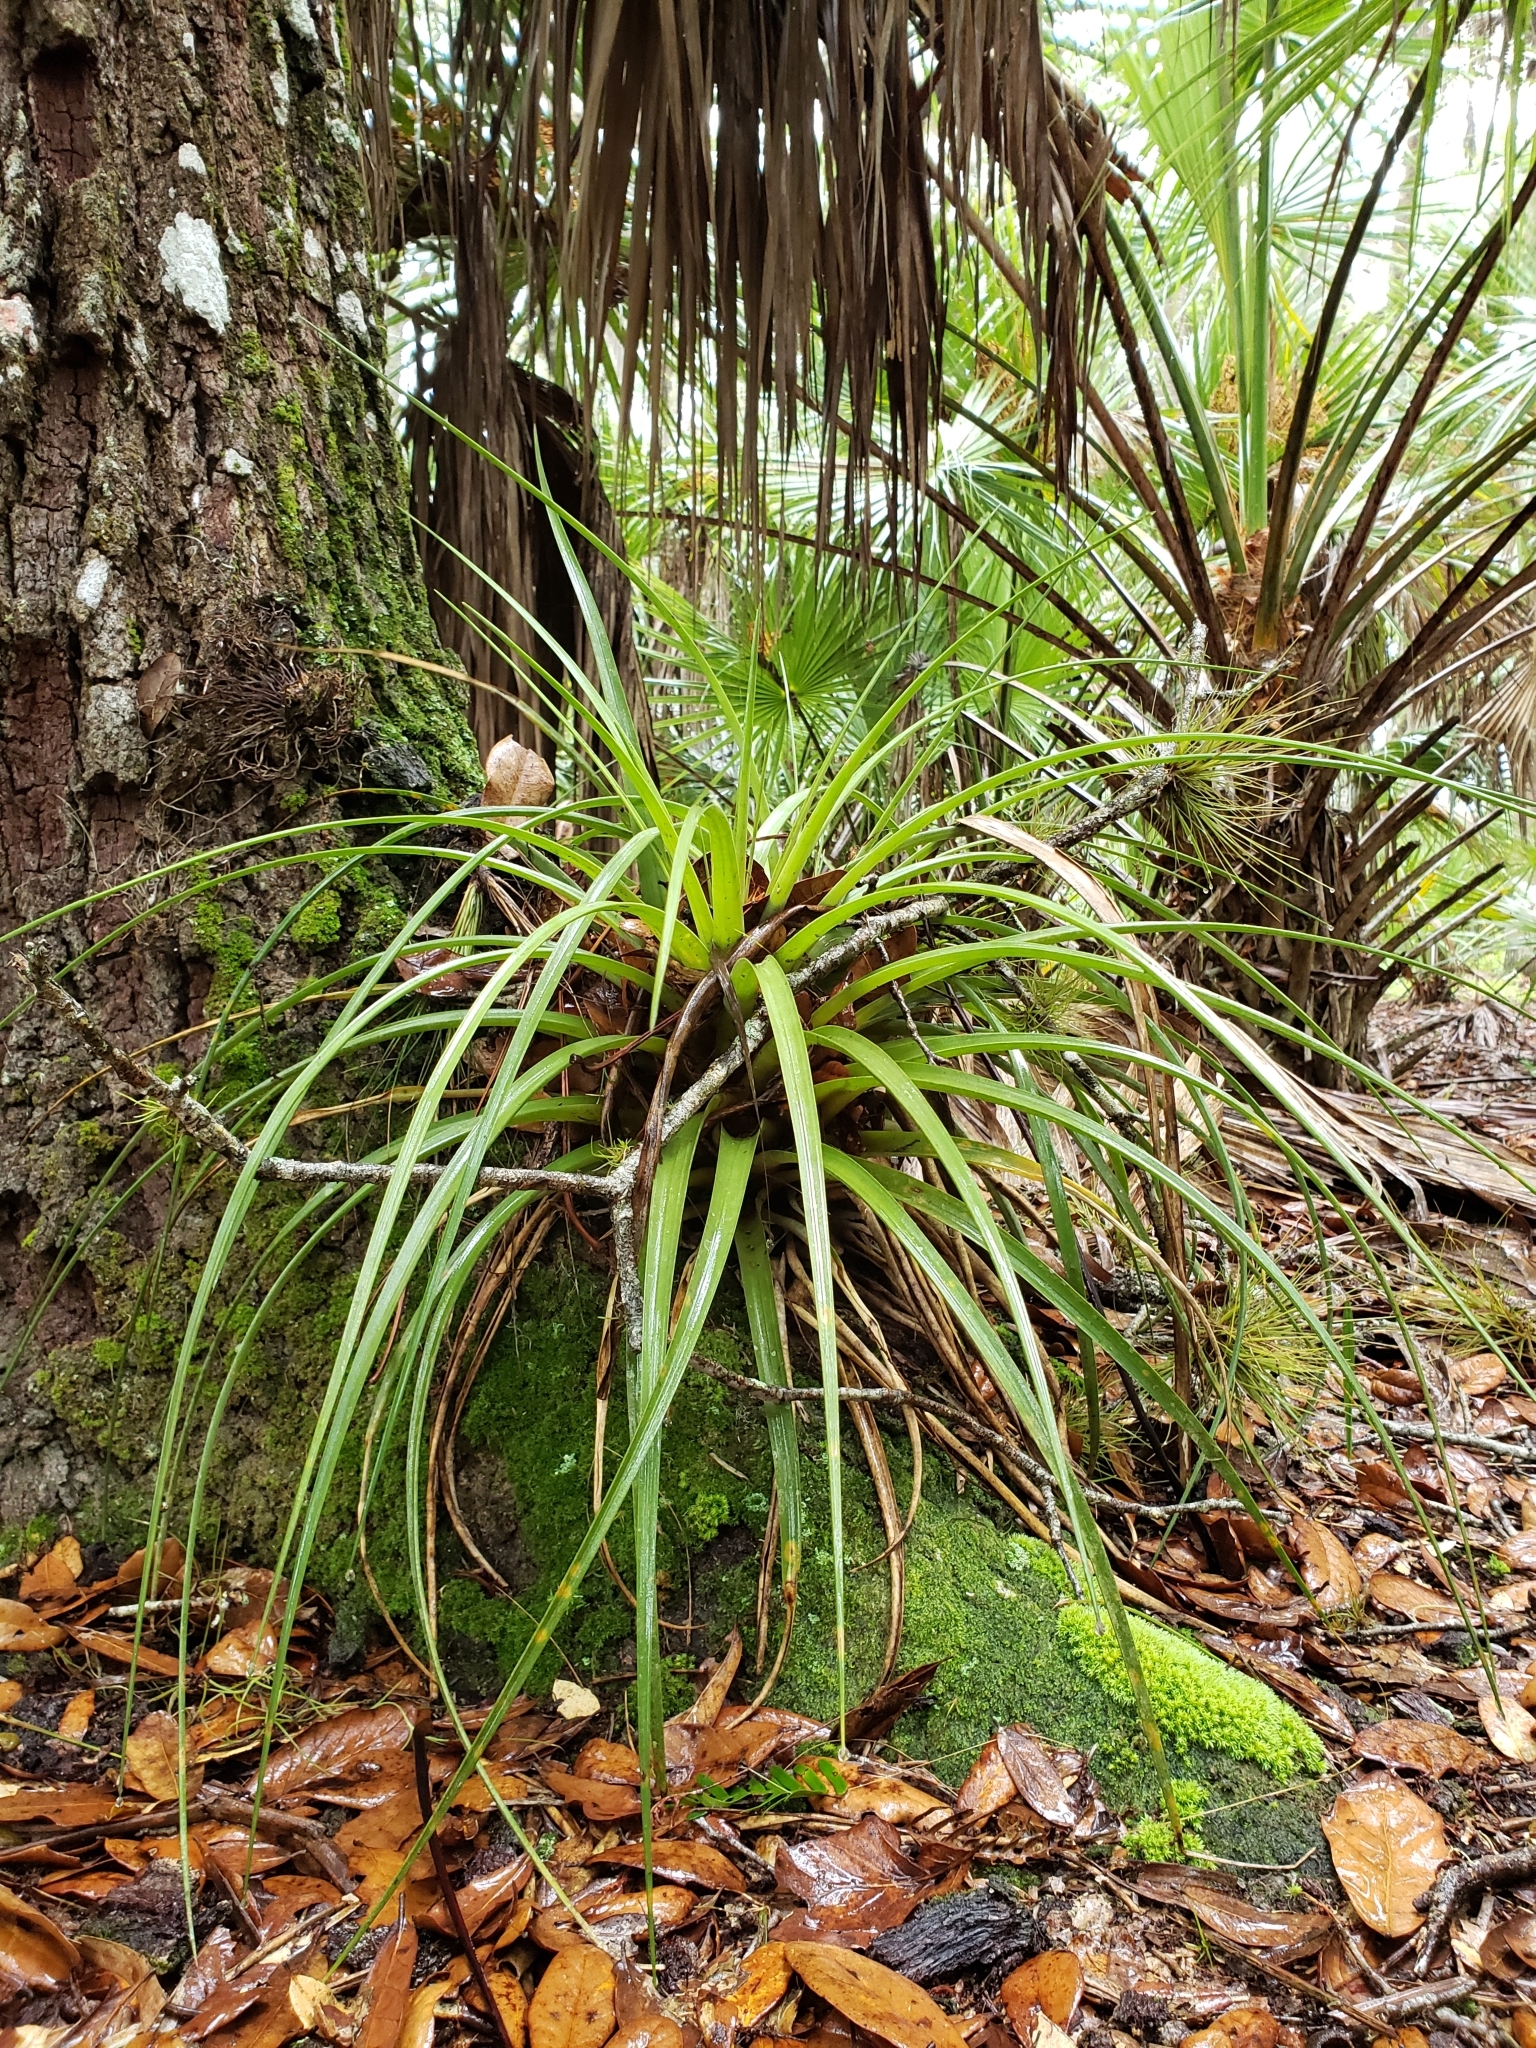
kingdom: Plantae
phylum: Tracheophyta
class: Liliopsida
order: Poales
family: Bromeliaceae
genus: Tillandsia
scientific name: Tillandsia fasciculata
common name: Giant airplant
